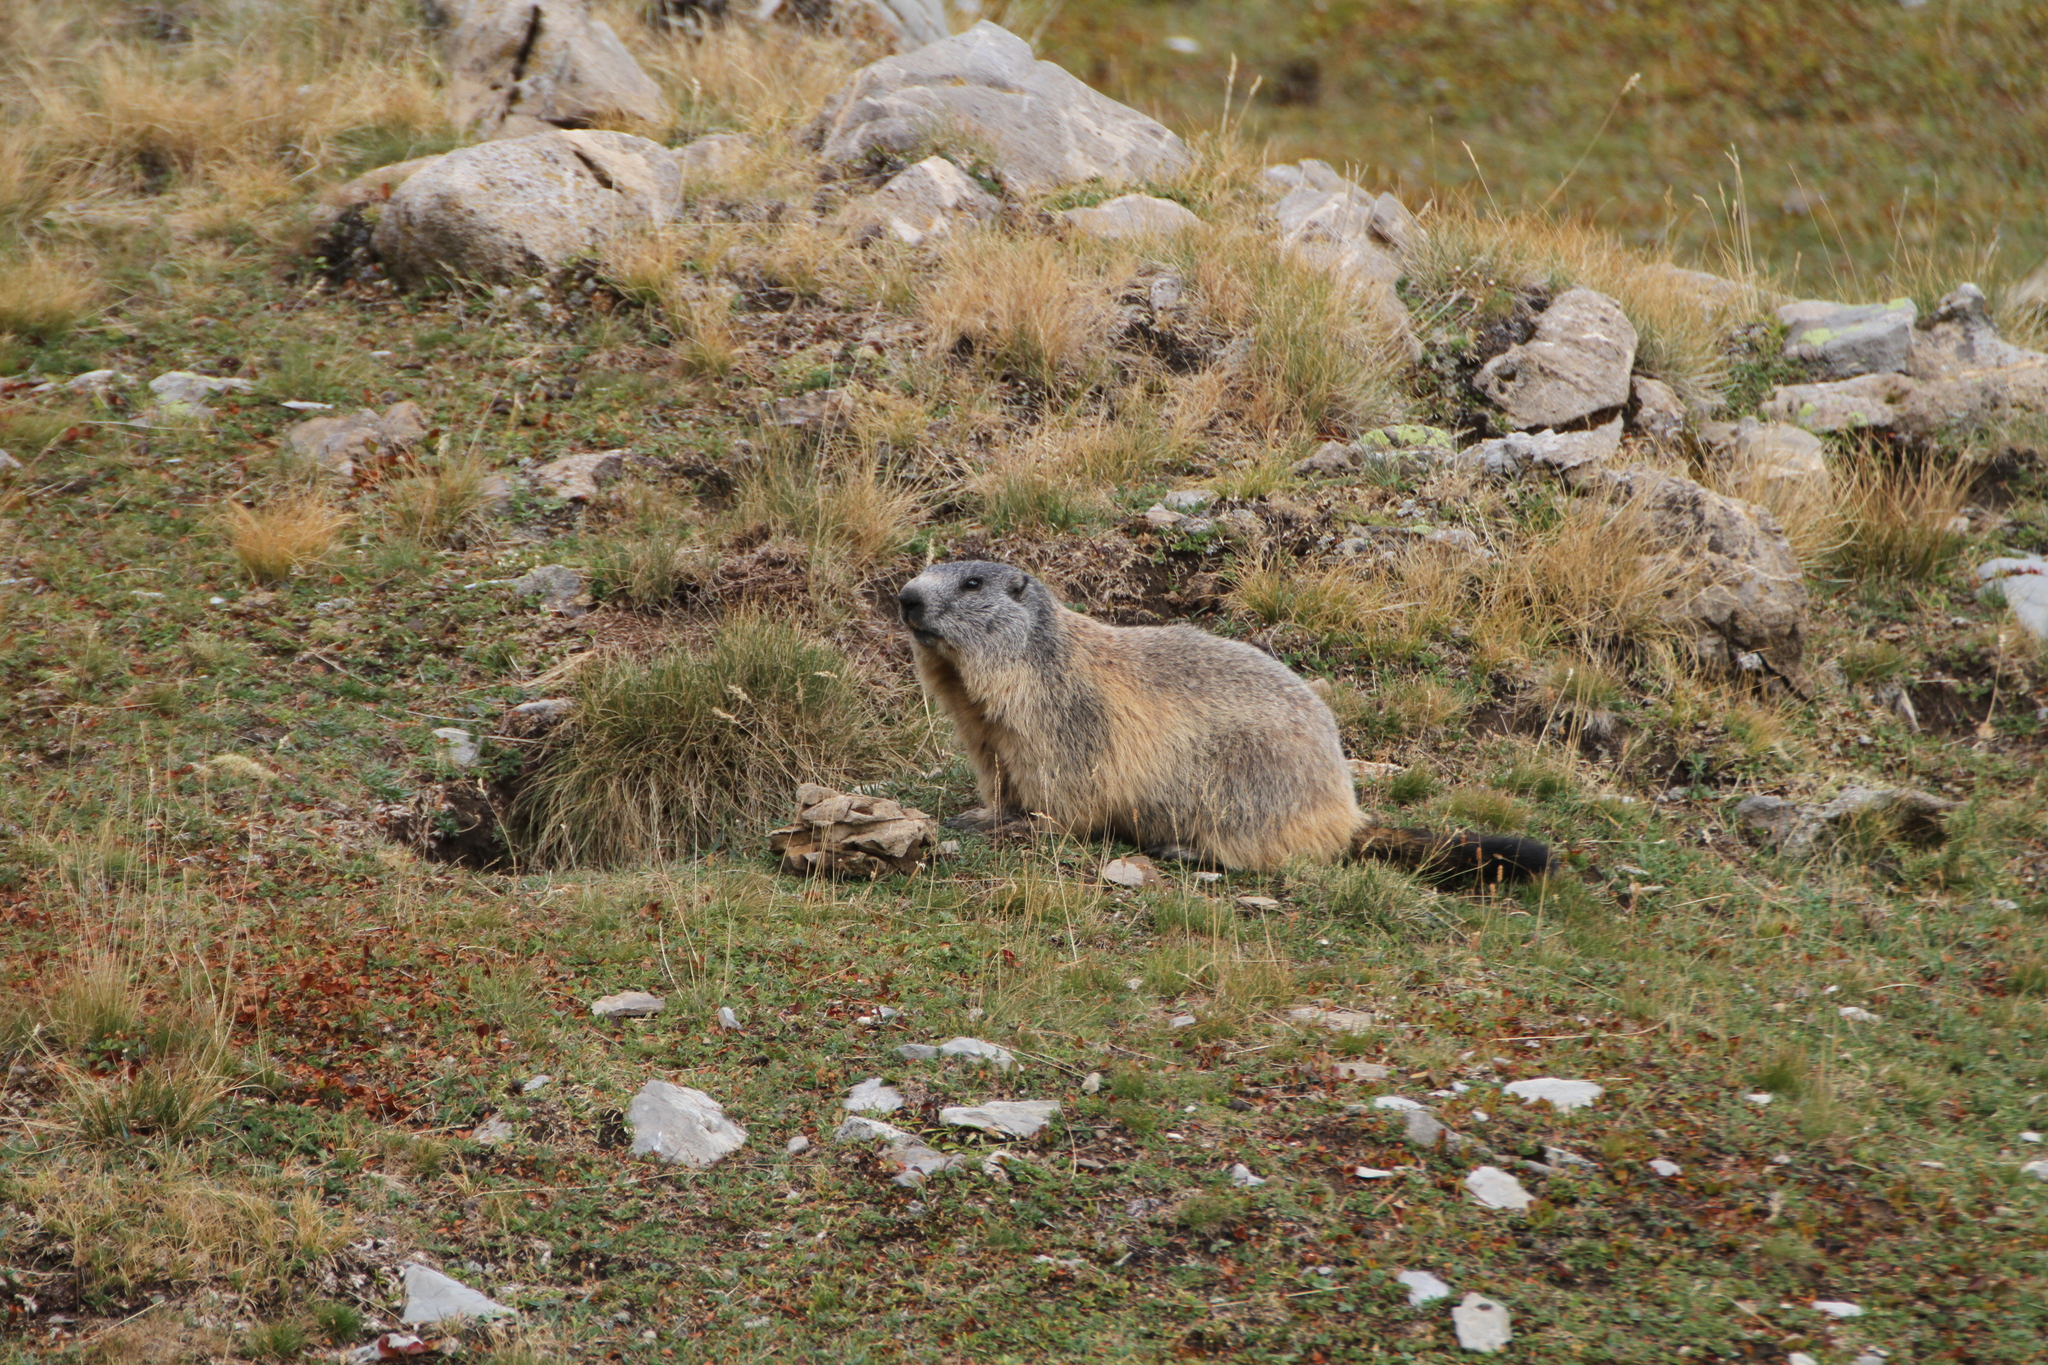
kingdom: Animalia
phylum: Chordata
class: Mammalia
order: Rodentia
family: Sciuridae
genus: Marmota
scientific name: Marmota marmota
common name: Alpine marmot
